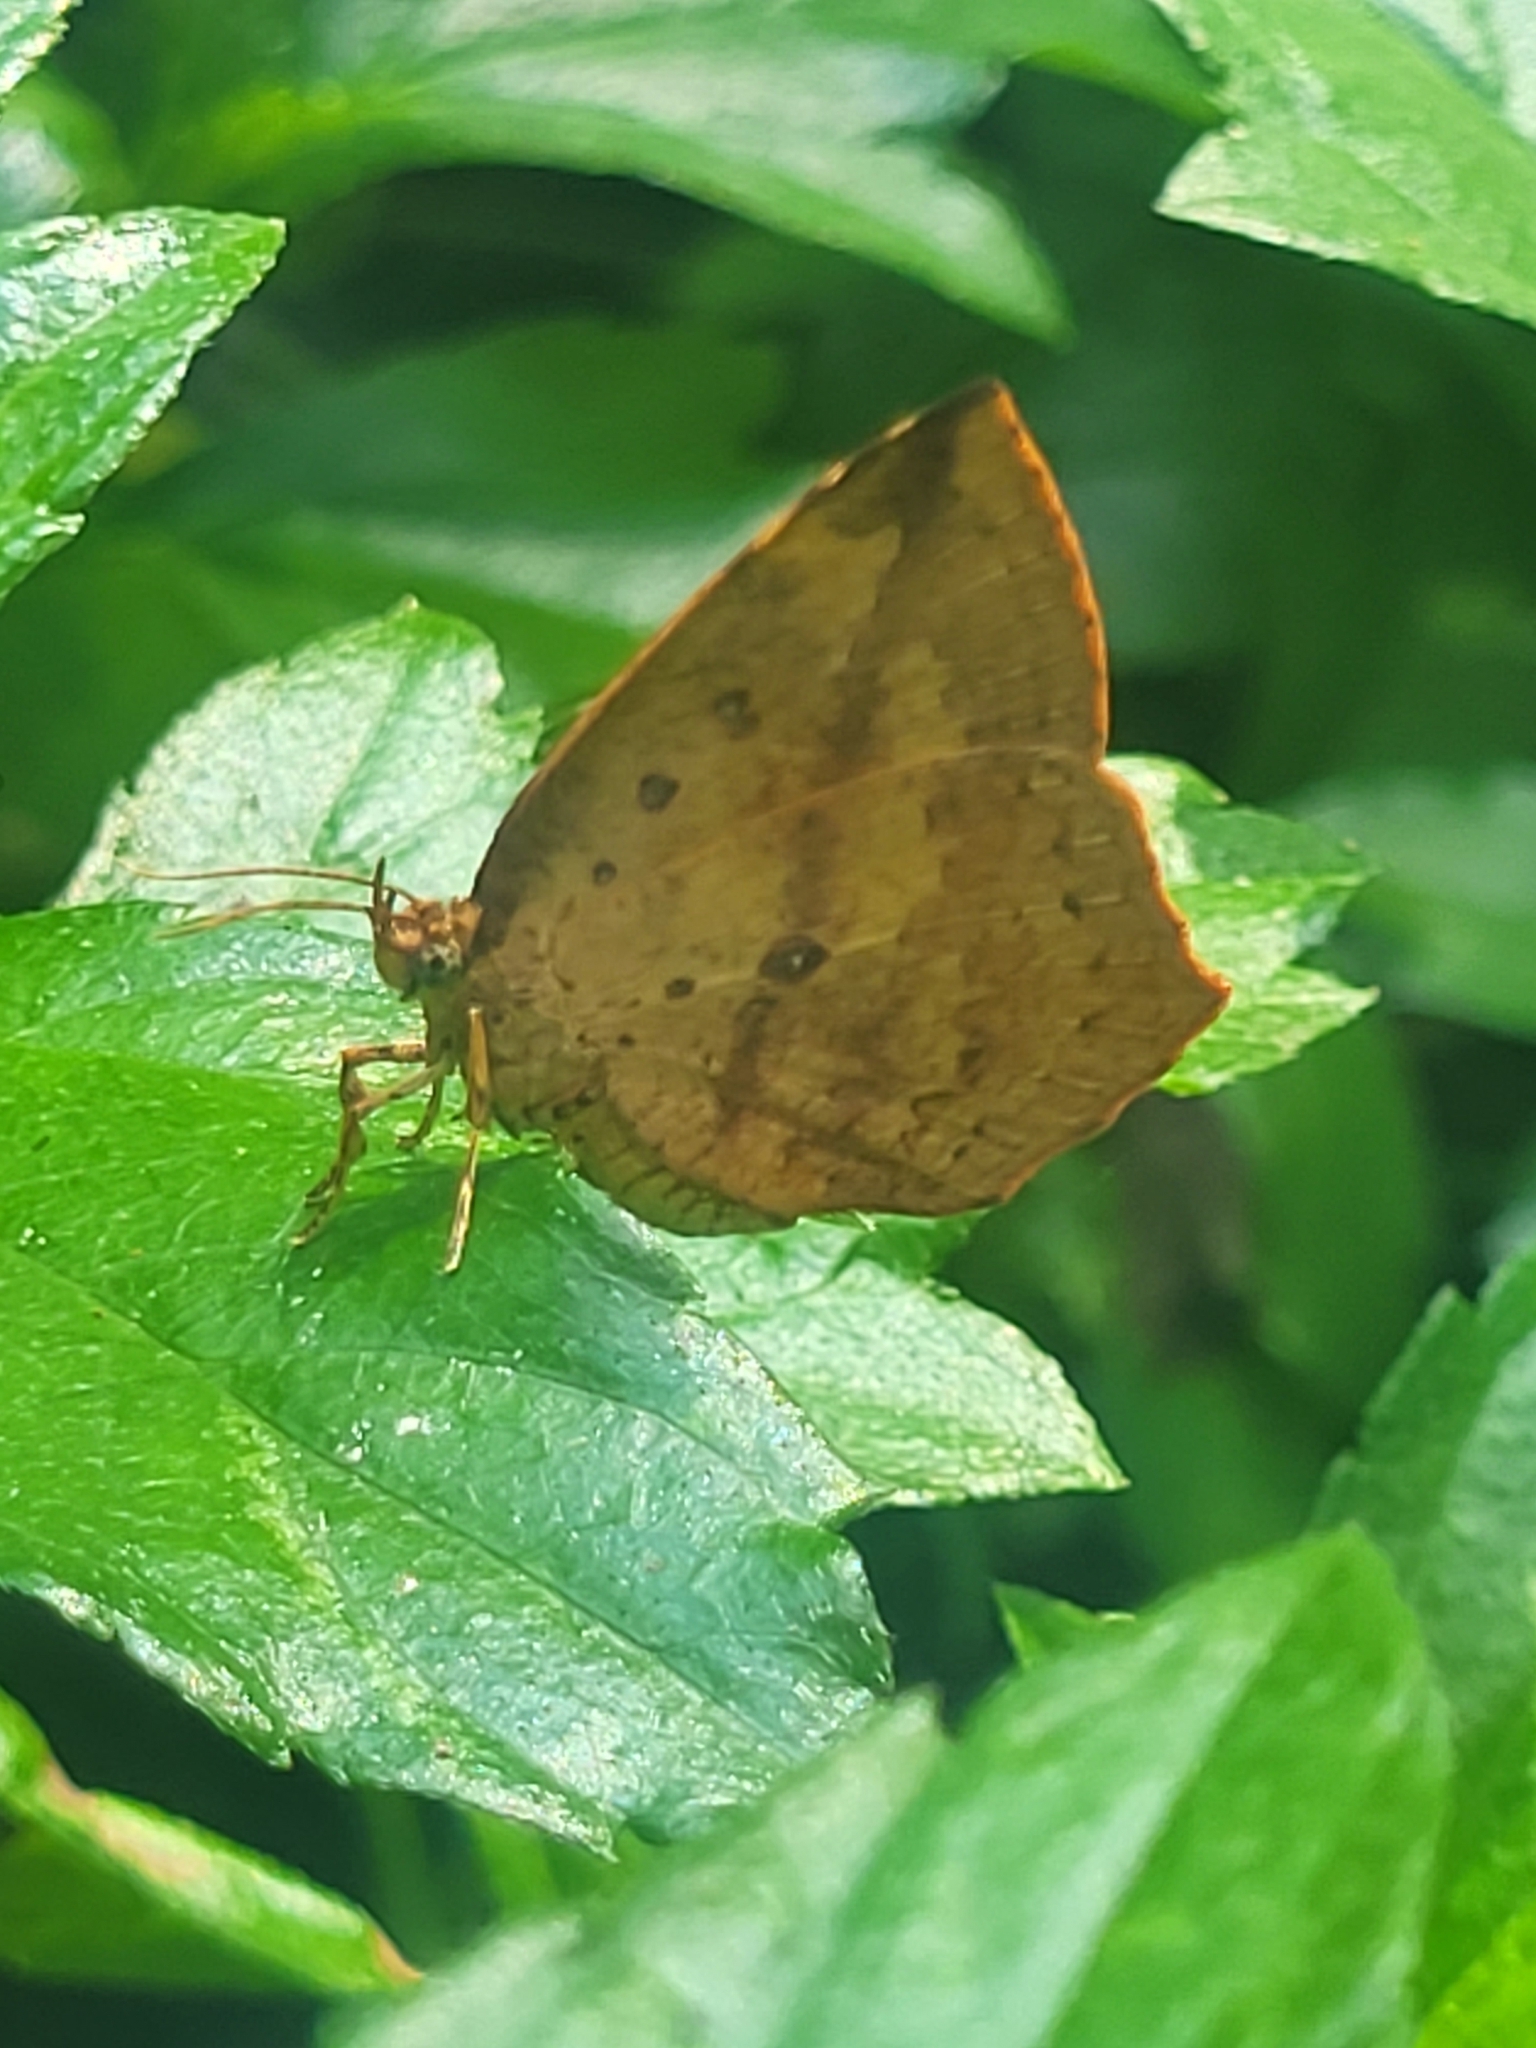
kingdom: Animalia
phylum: Arthropoda
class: Insecta
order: Lepidoptera
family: Callidulidae
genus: Tetragonus
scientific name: Tetragonus catamitus
